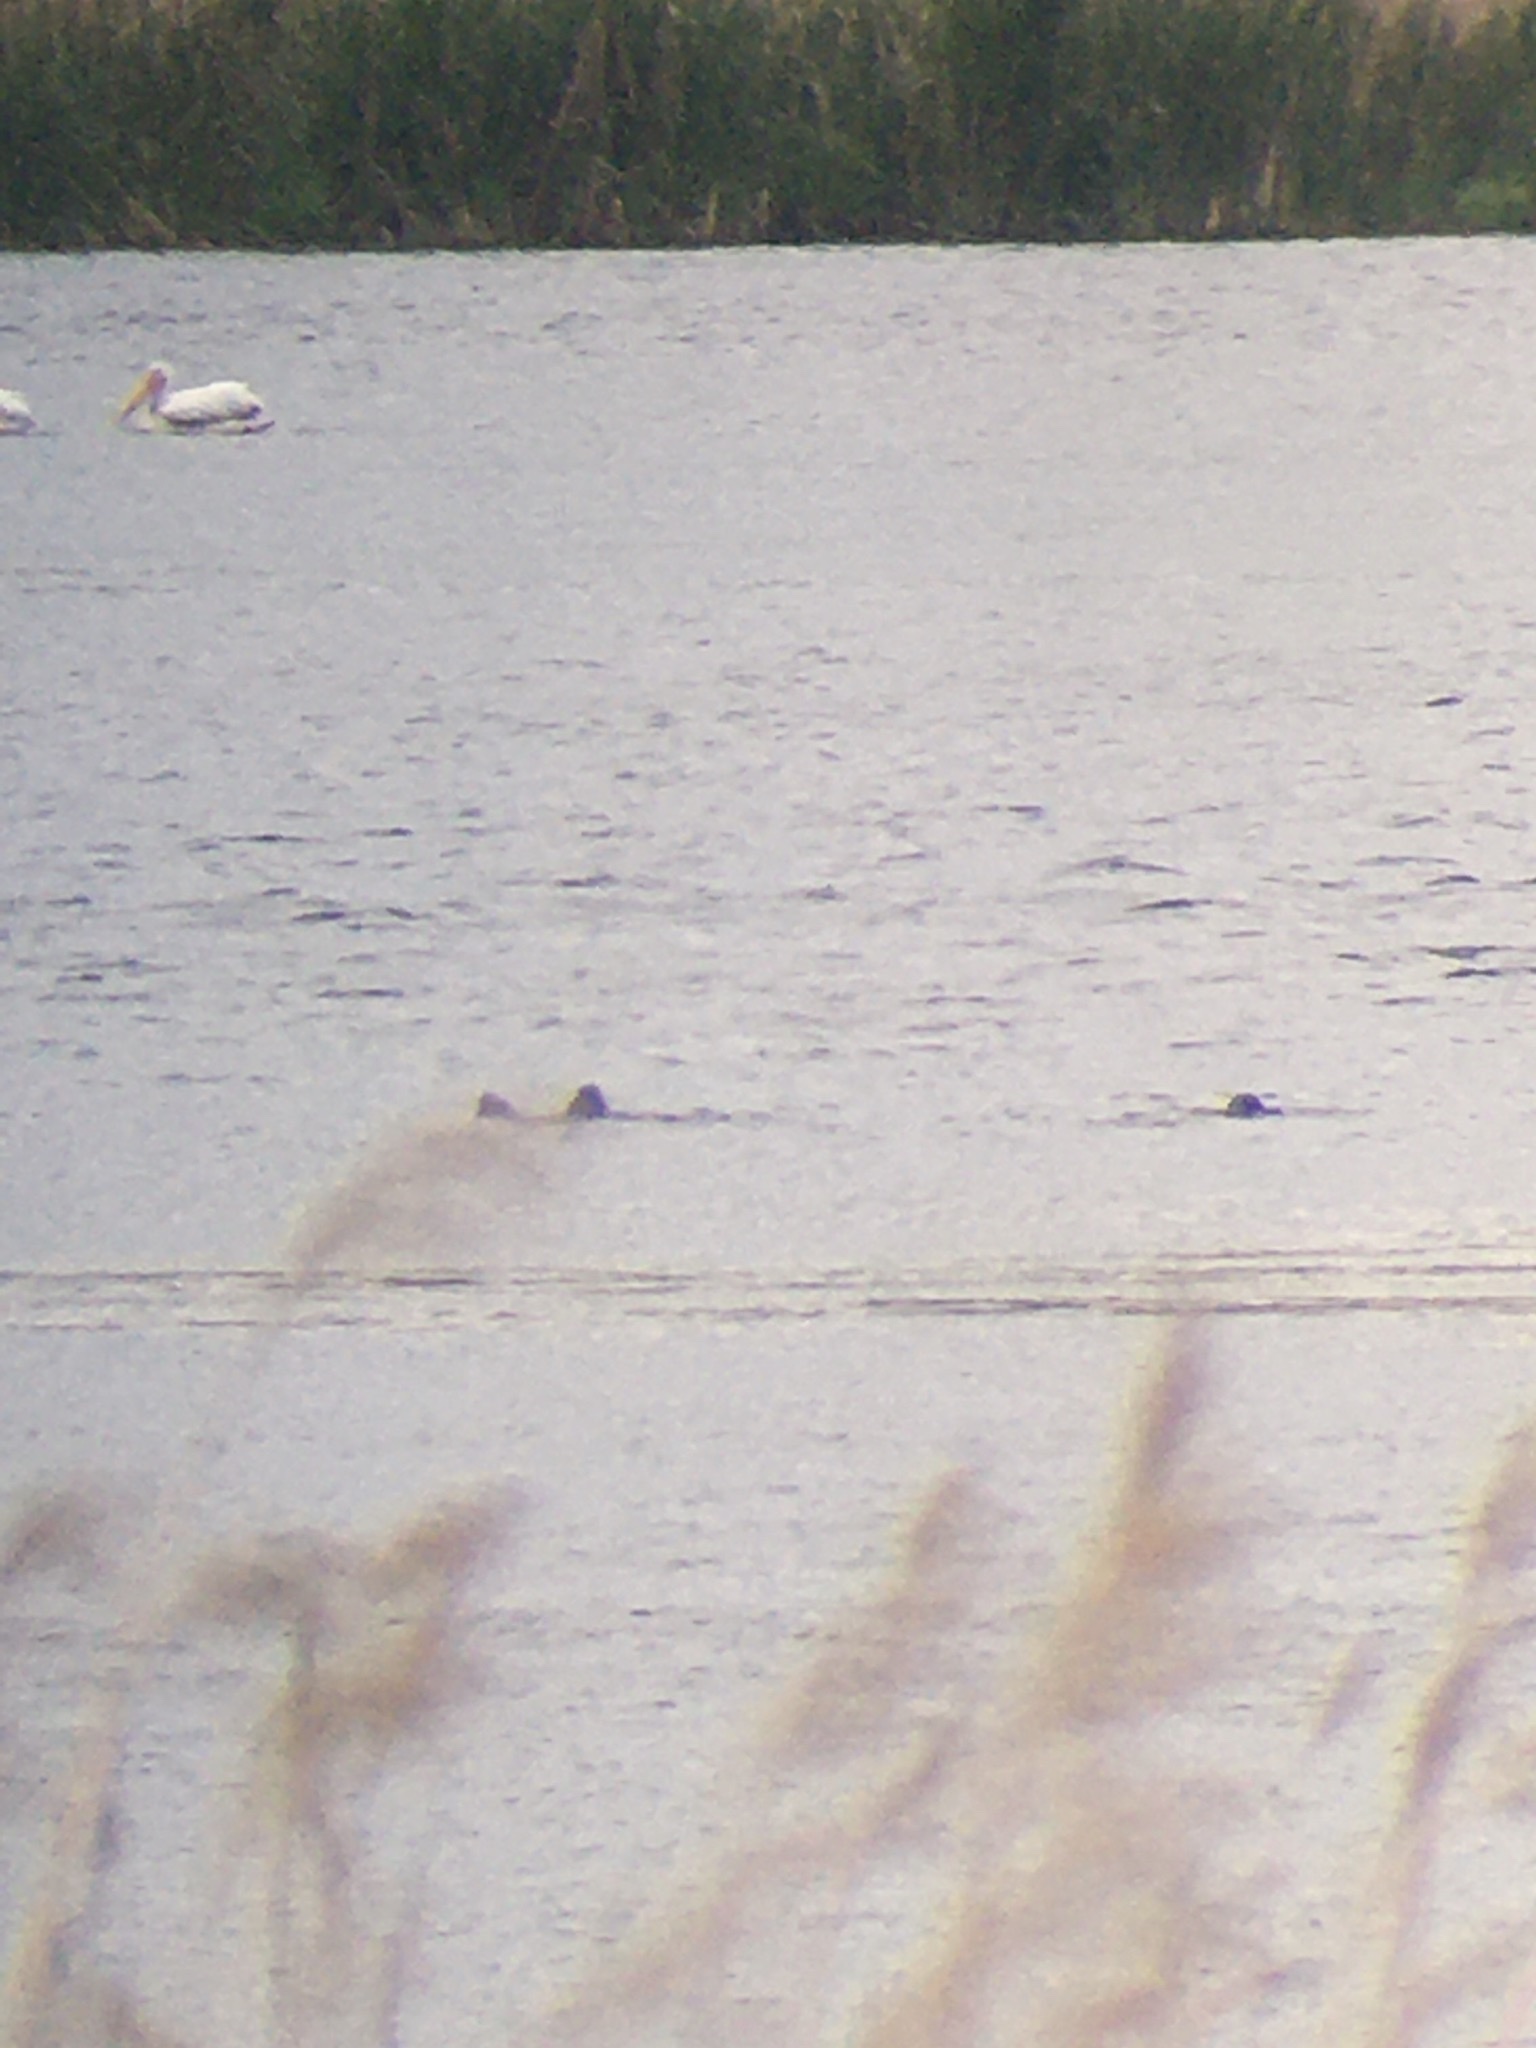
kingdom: Animalia
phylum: Chordata
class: Mammalia
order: Carnivora
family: Mustelidae
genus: Lontra
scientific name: Lontra canadensis
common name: North american river otter
